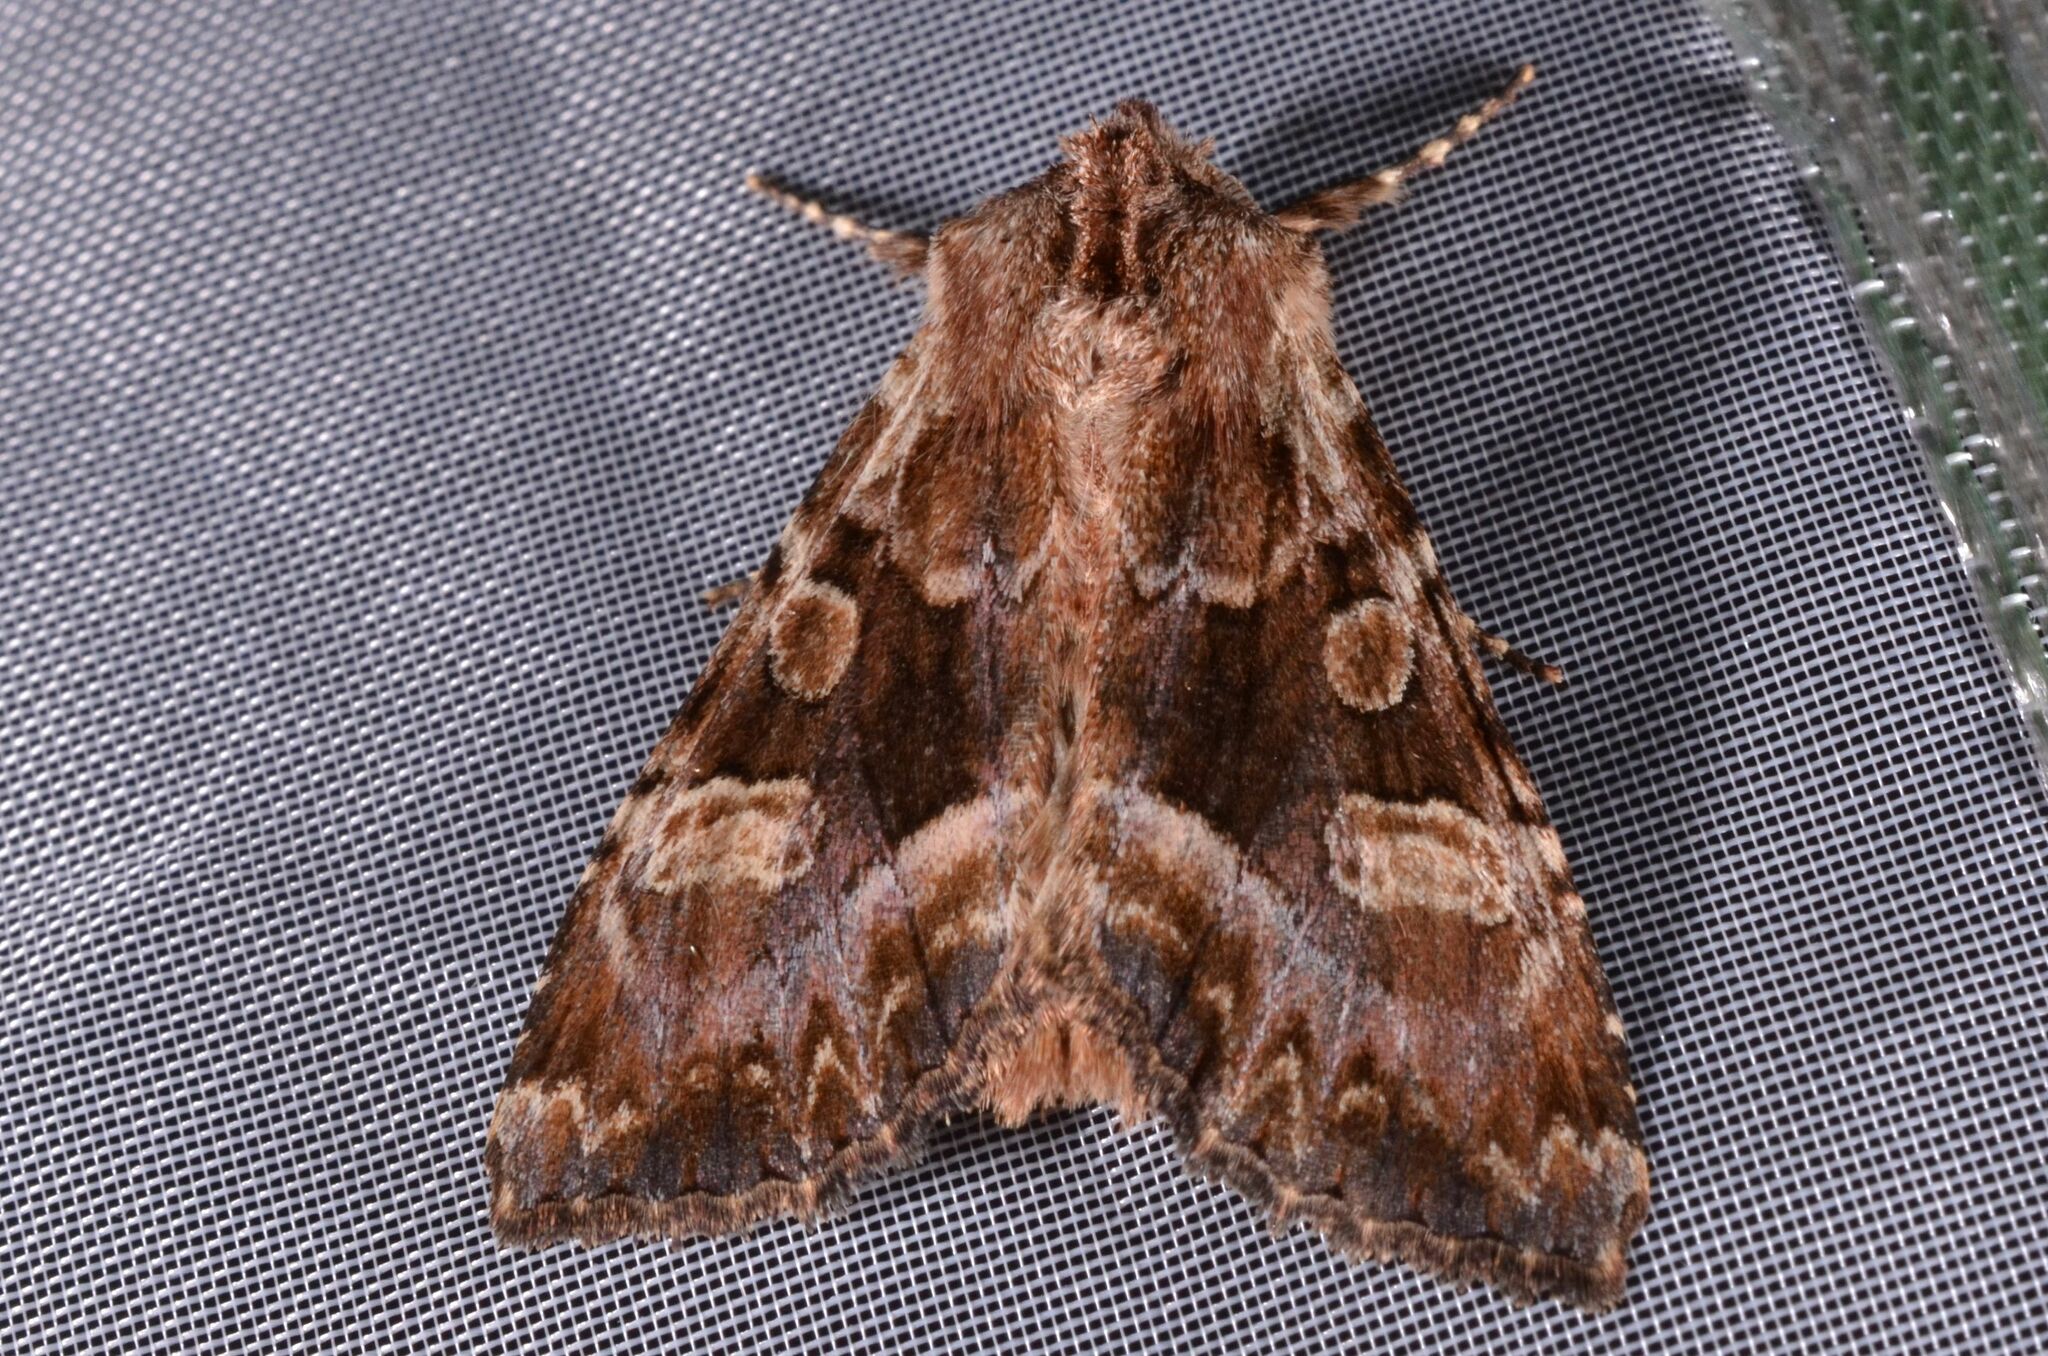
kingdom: Animalia
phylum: Arthropoda
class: Insecta
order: Lepidoptera
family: Noctuidae
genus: Blepharita
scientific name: Blepharita amica
